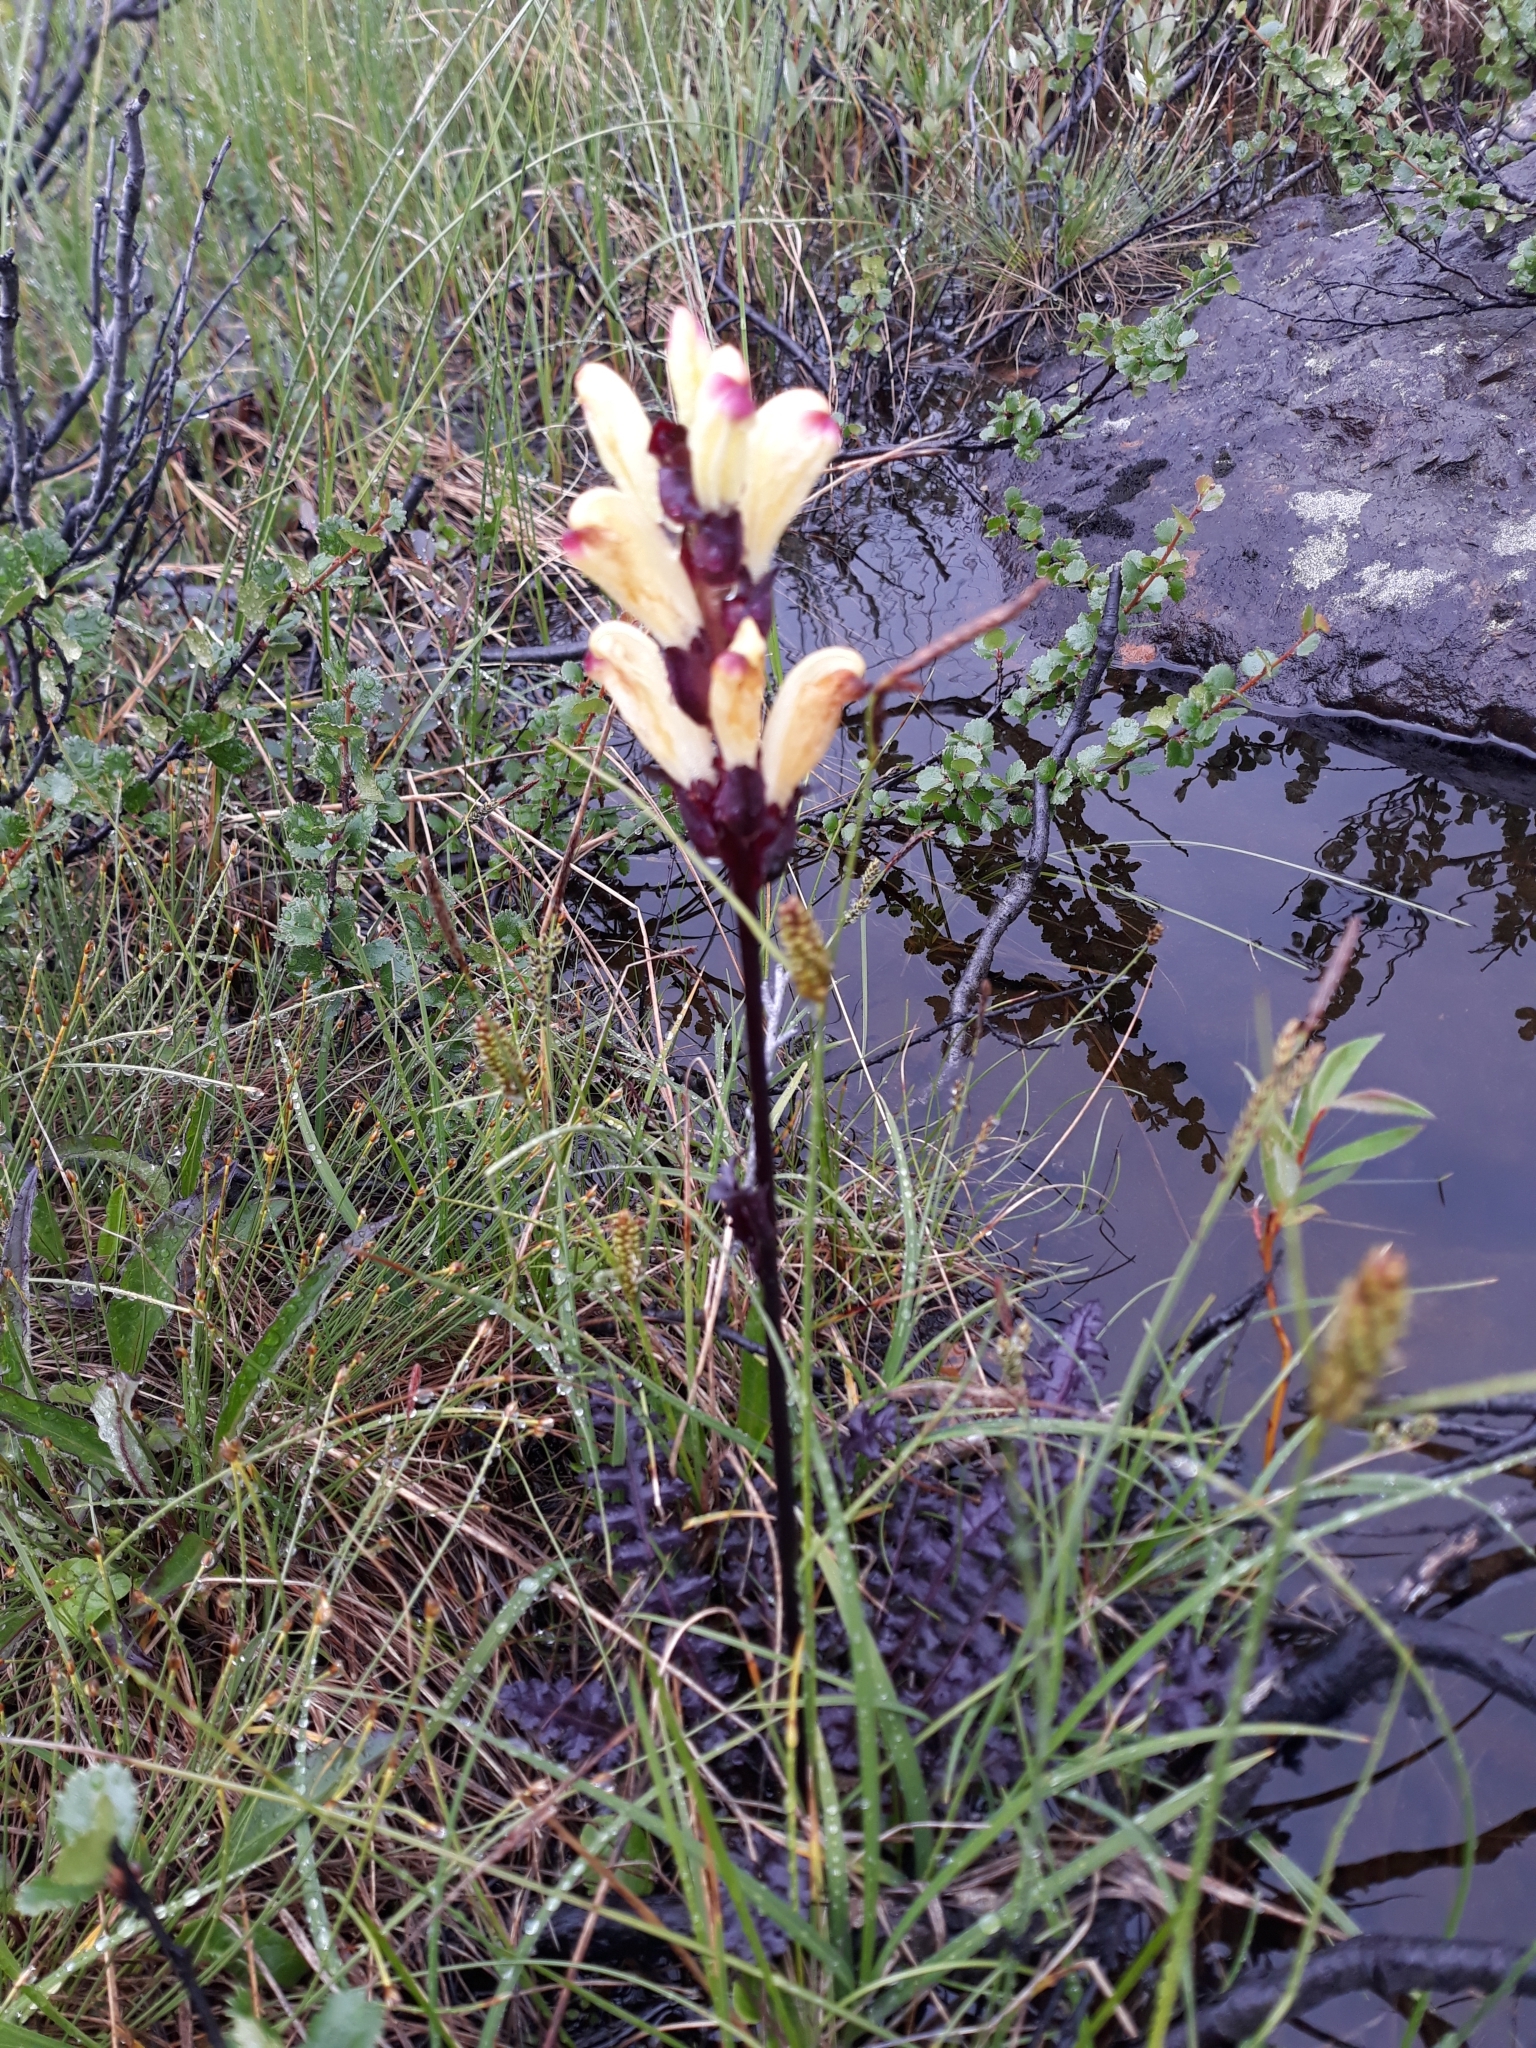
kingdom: Plantae
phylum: Tracheophyta
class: Magnoliopsida
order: Lamiales
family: Orobanchaceae
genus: Pedicularis
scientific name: Pedicularis sceptrum-carolinum
